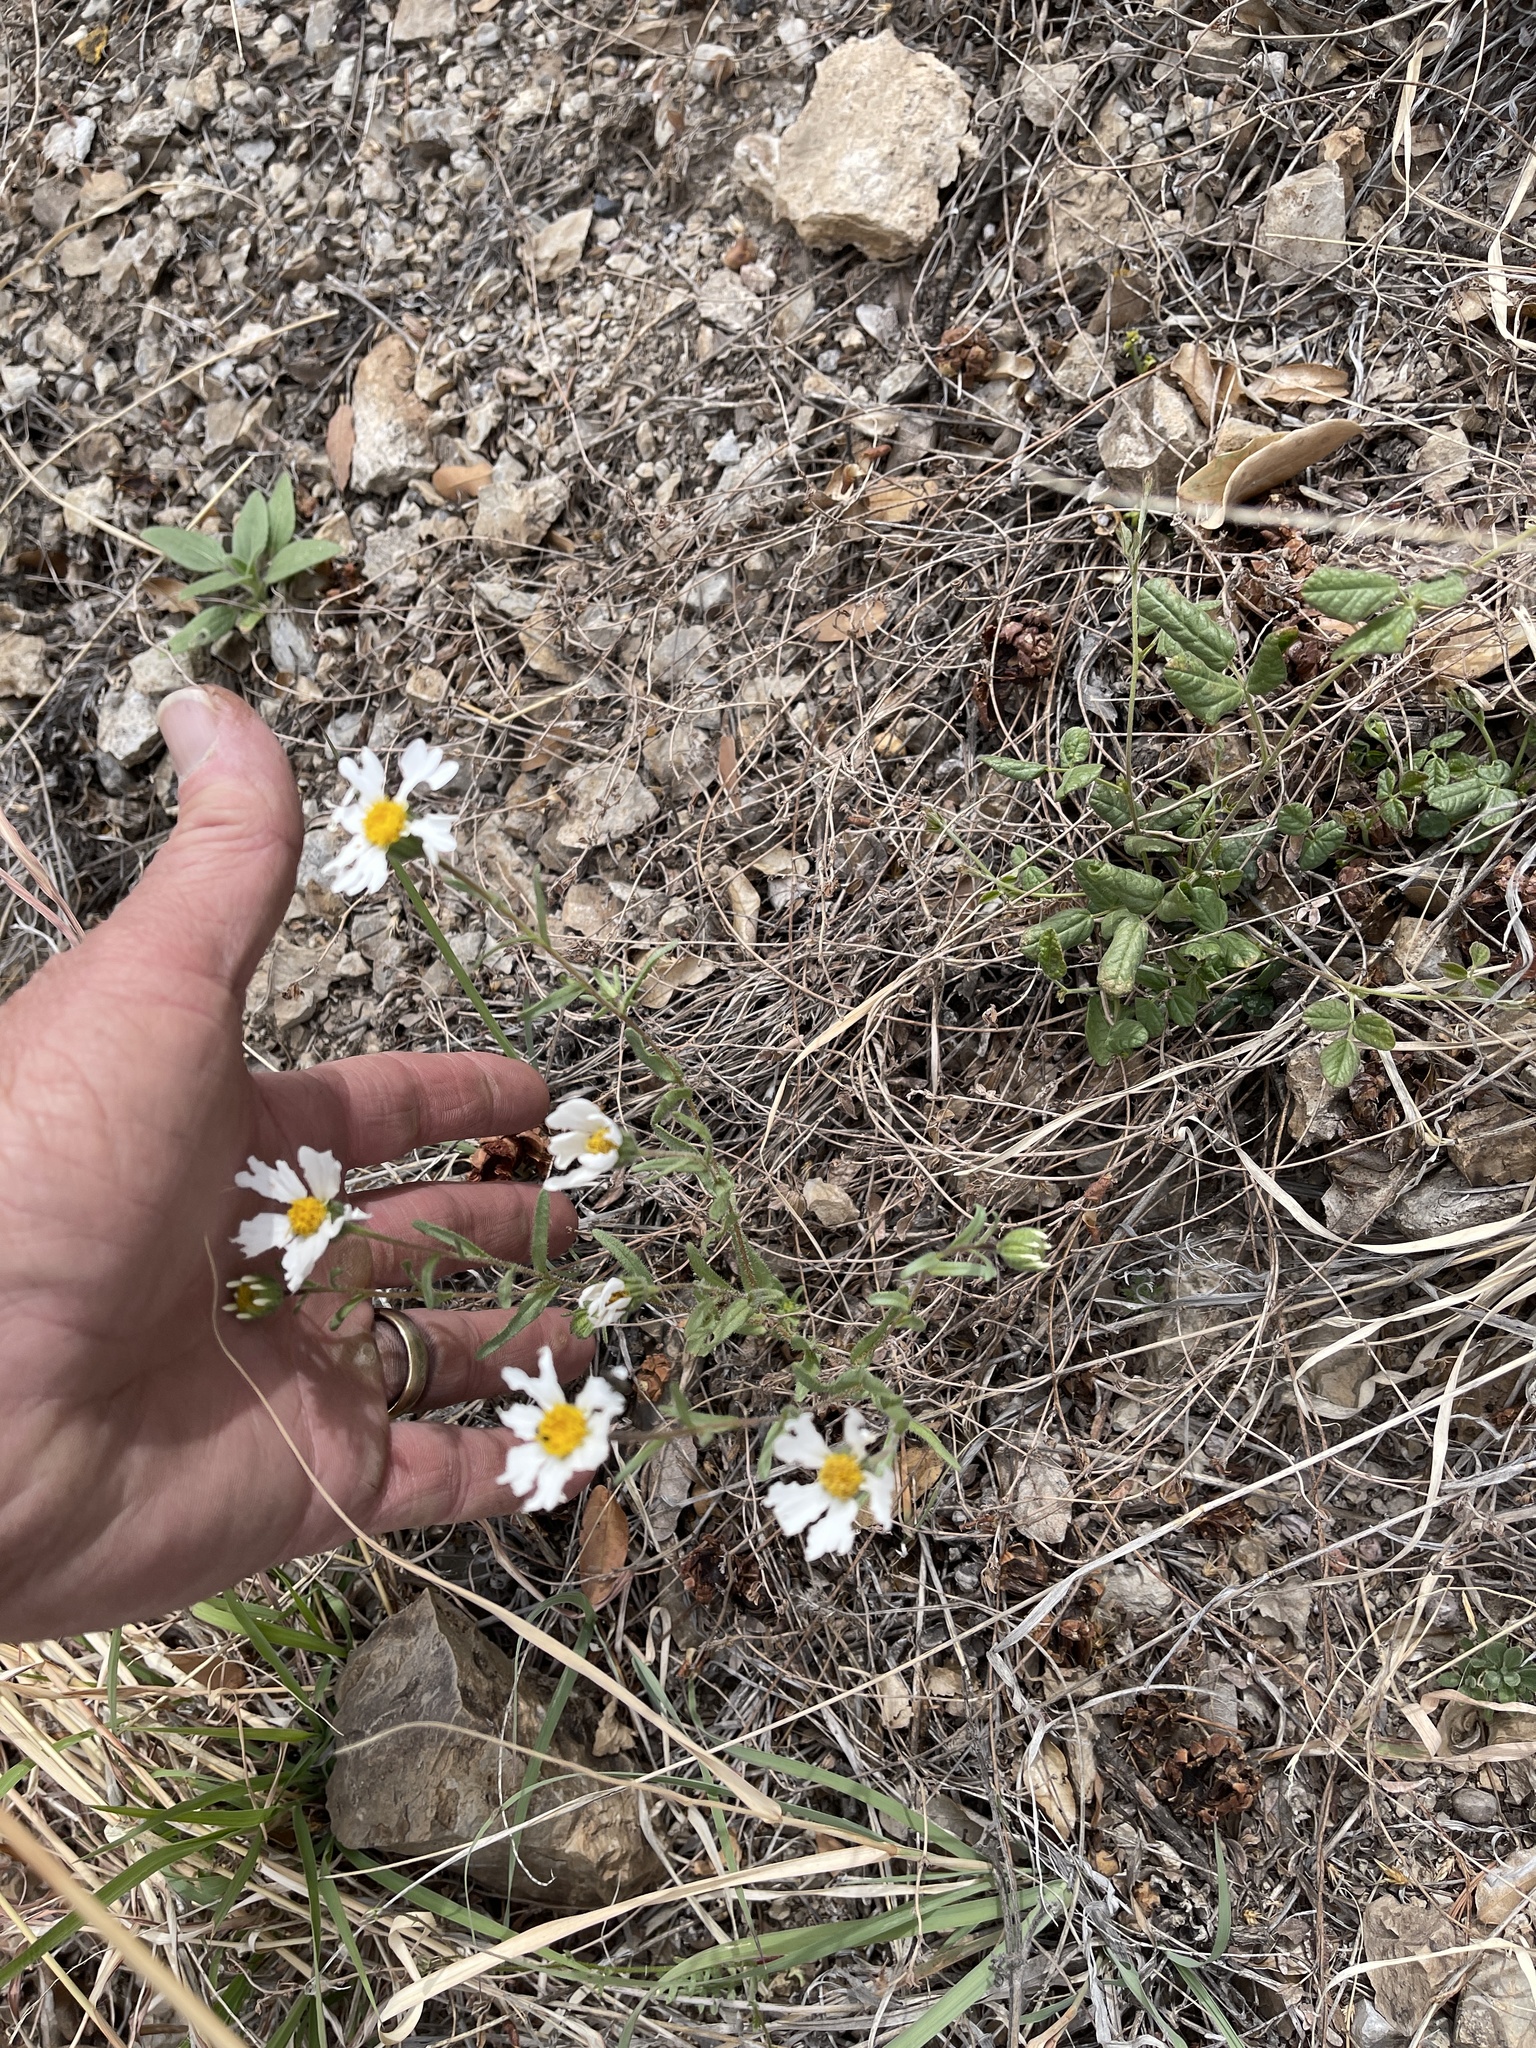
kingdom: Plantae
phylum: Tracheophyta
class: Magnoliopsida
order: Asterales
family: Asteraceae
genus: Melampodium
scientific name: Melampodium leucanthum
